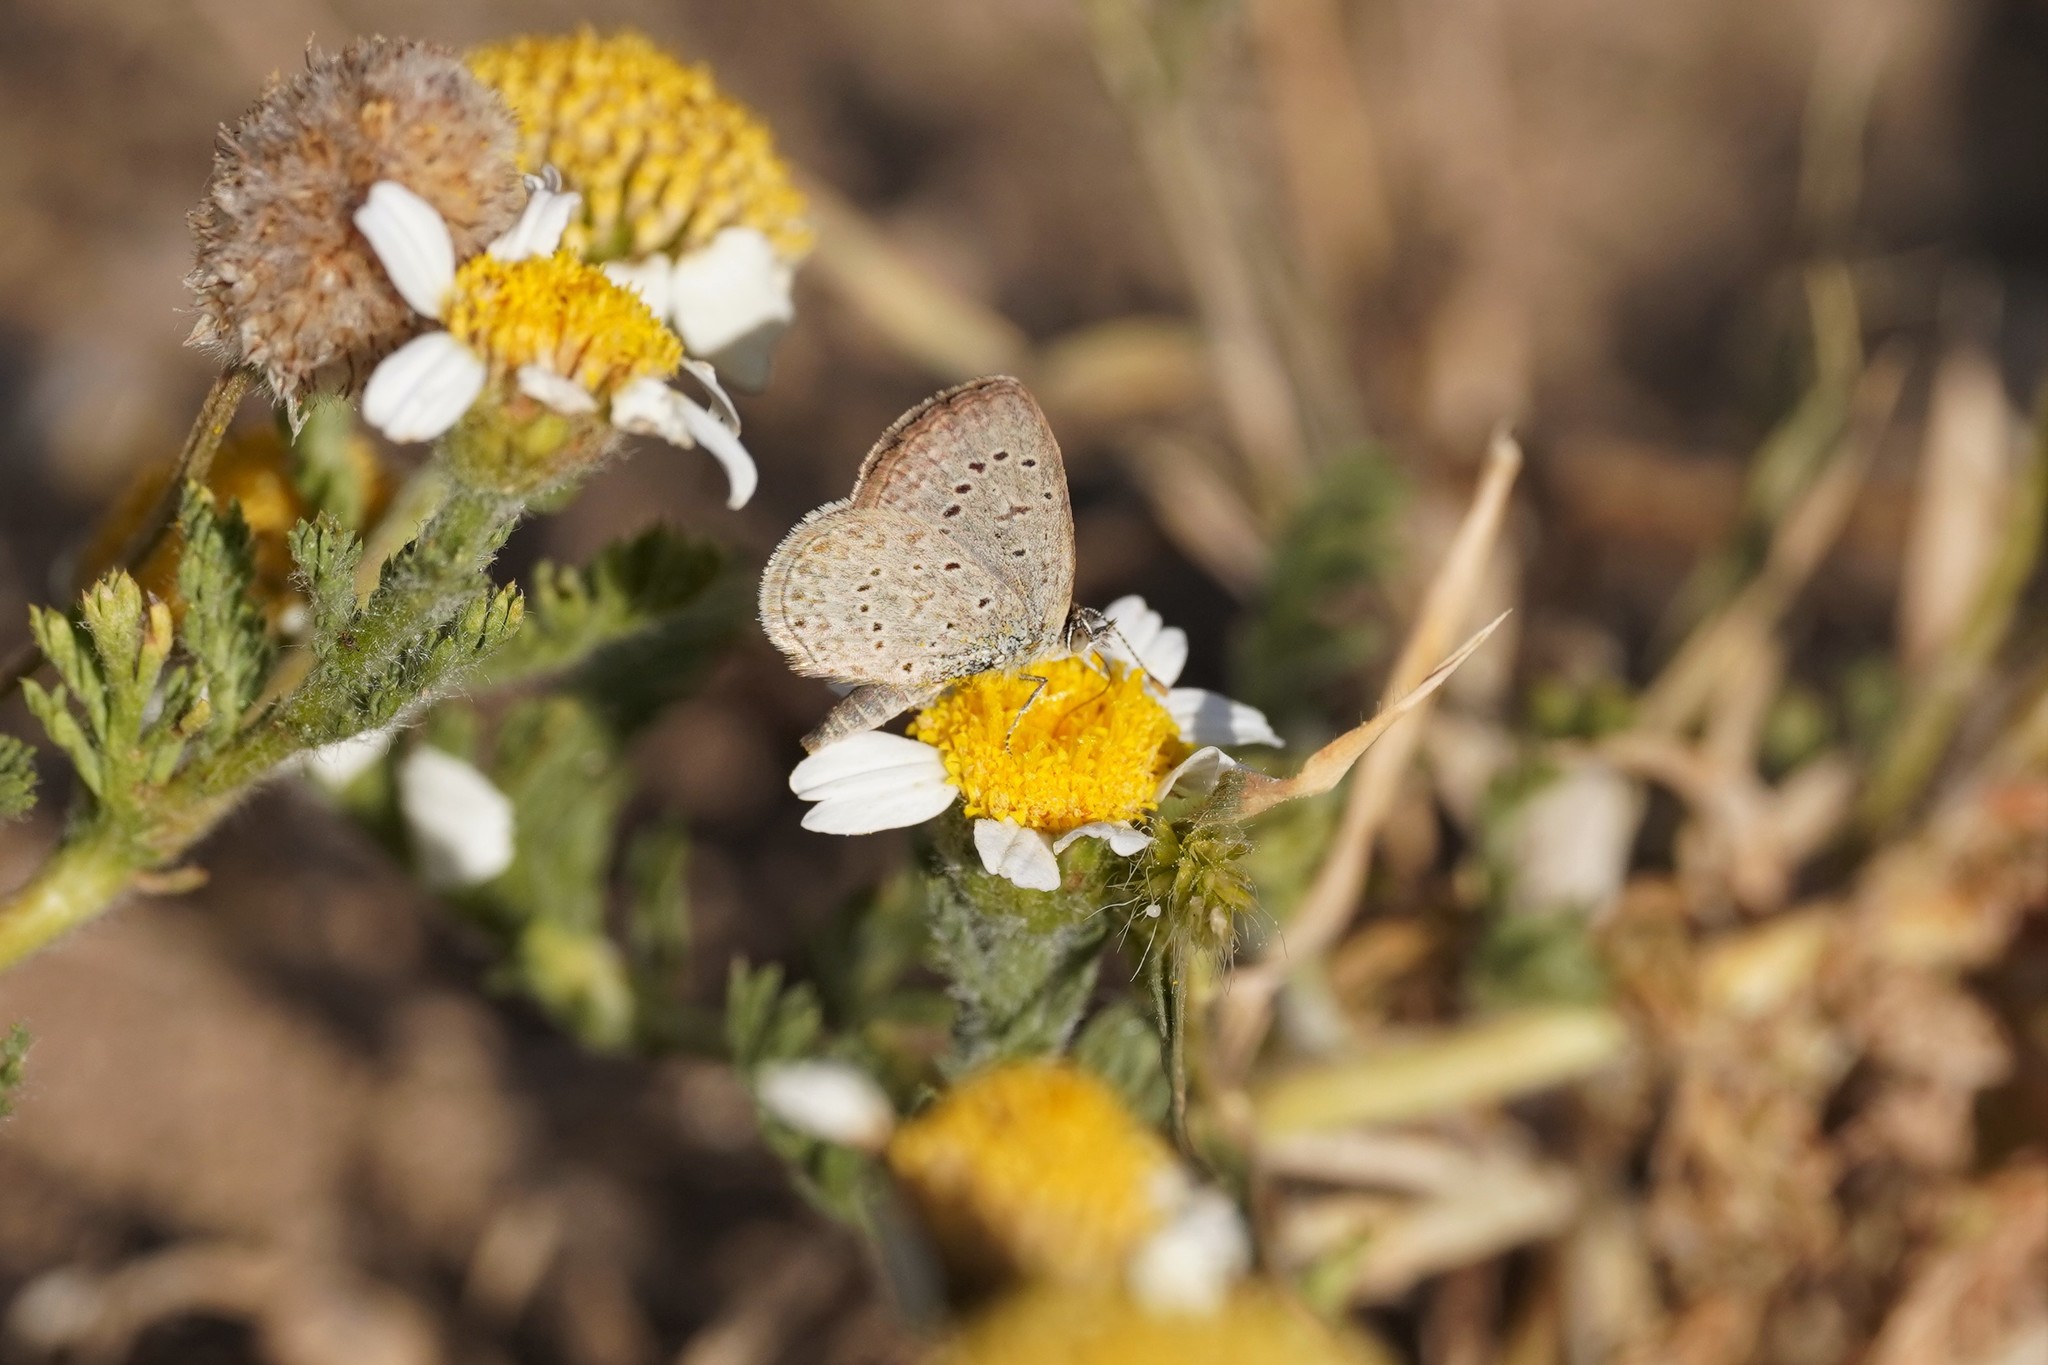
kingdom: Animalia
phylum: Arthropoda
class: Insecta
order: Lepidoptera
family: Lycaenidae
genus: Zizeeria
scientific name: Zizeeria knysna
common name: African grass blue
